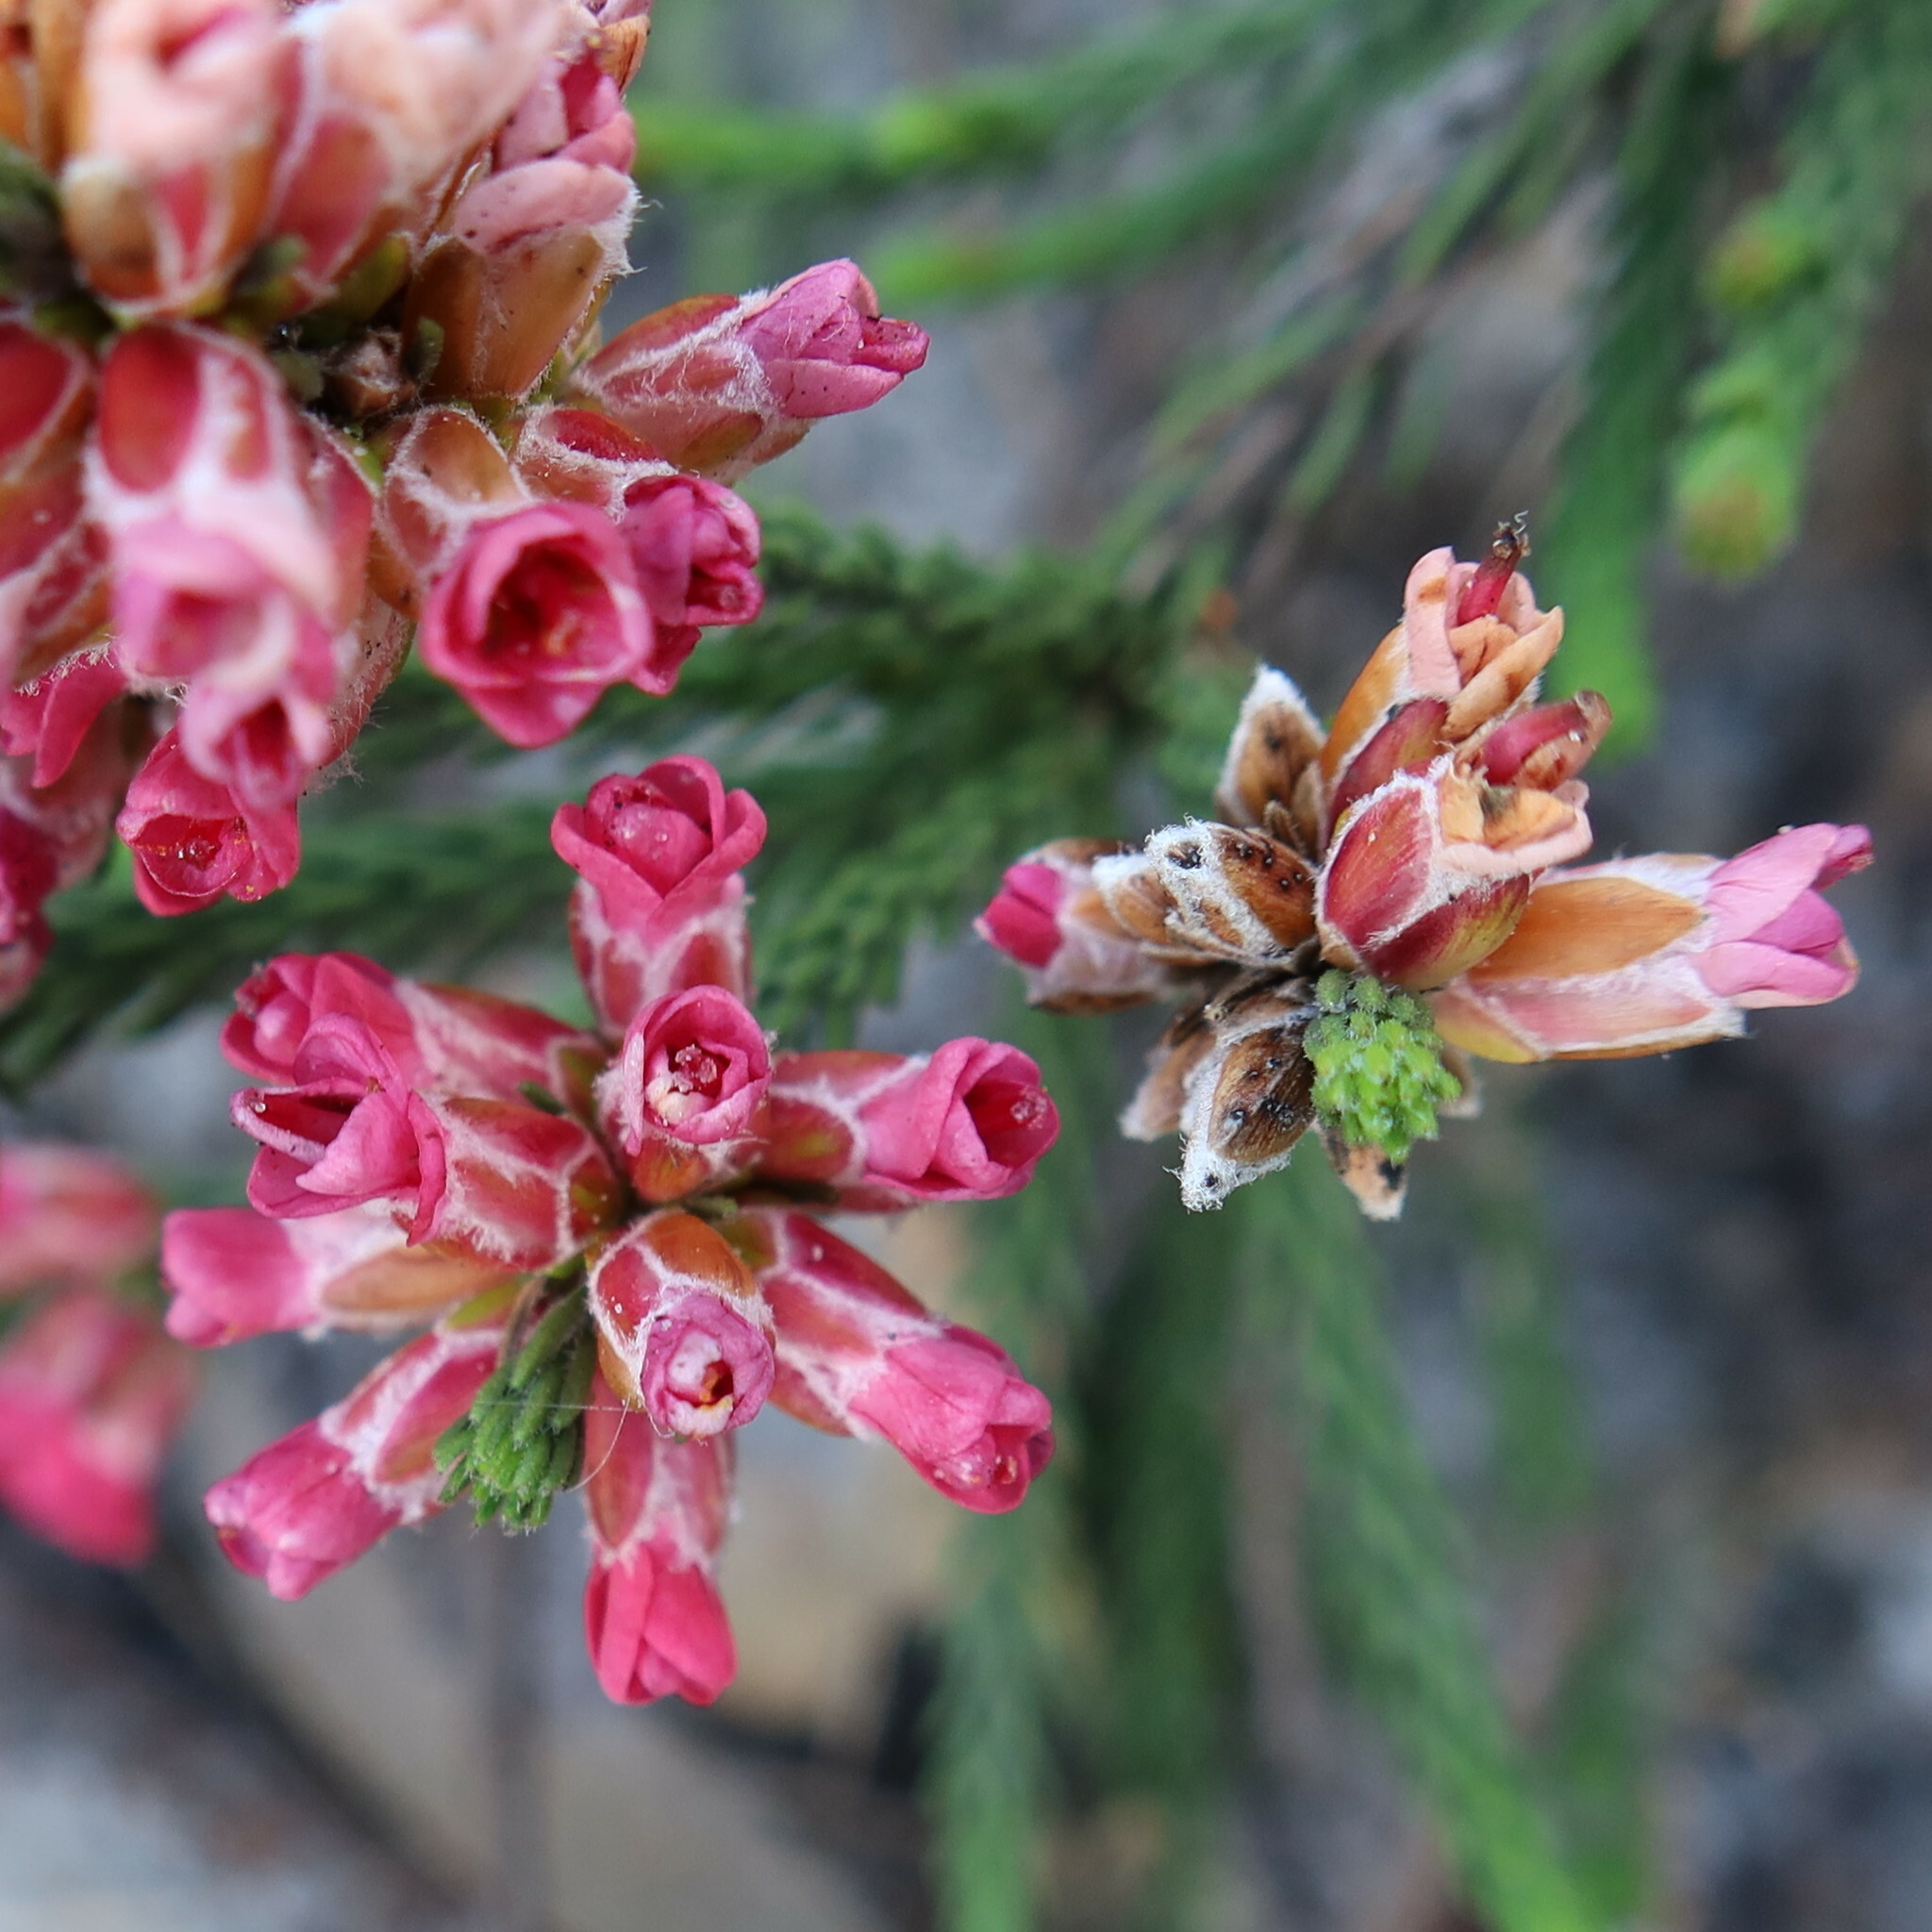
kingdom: Plantae
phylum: Tracheophyta
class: Magnoliopsida
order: Bruniales
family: Bruniaceae
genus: Audouinia
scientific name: Audouinia capitata
